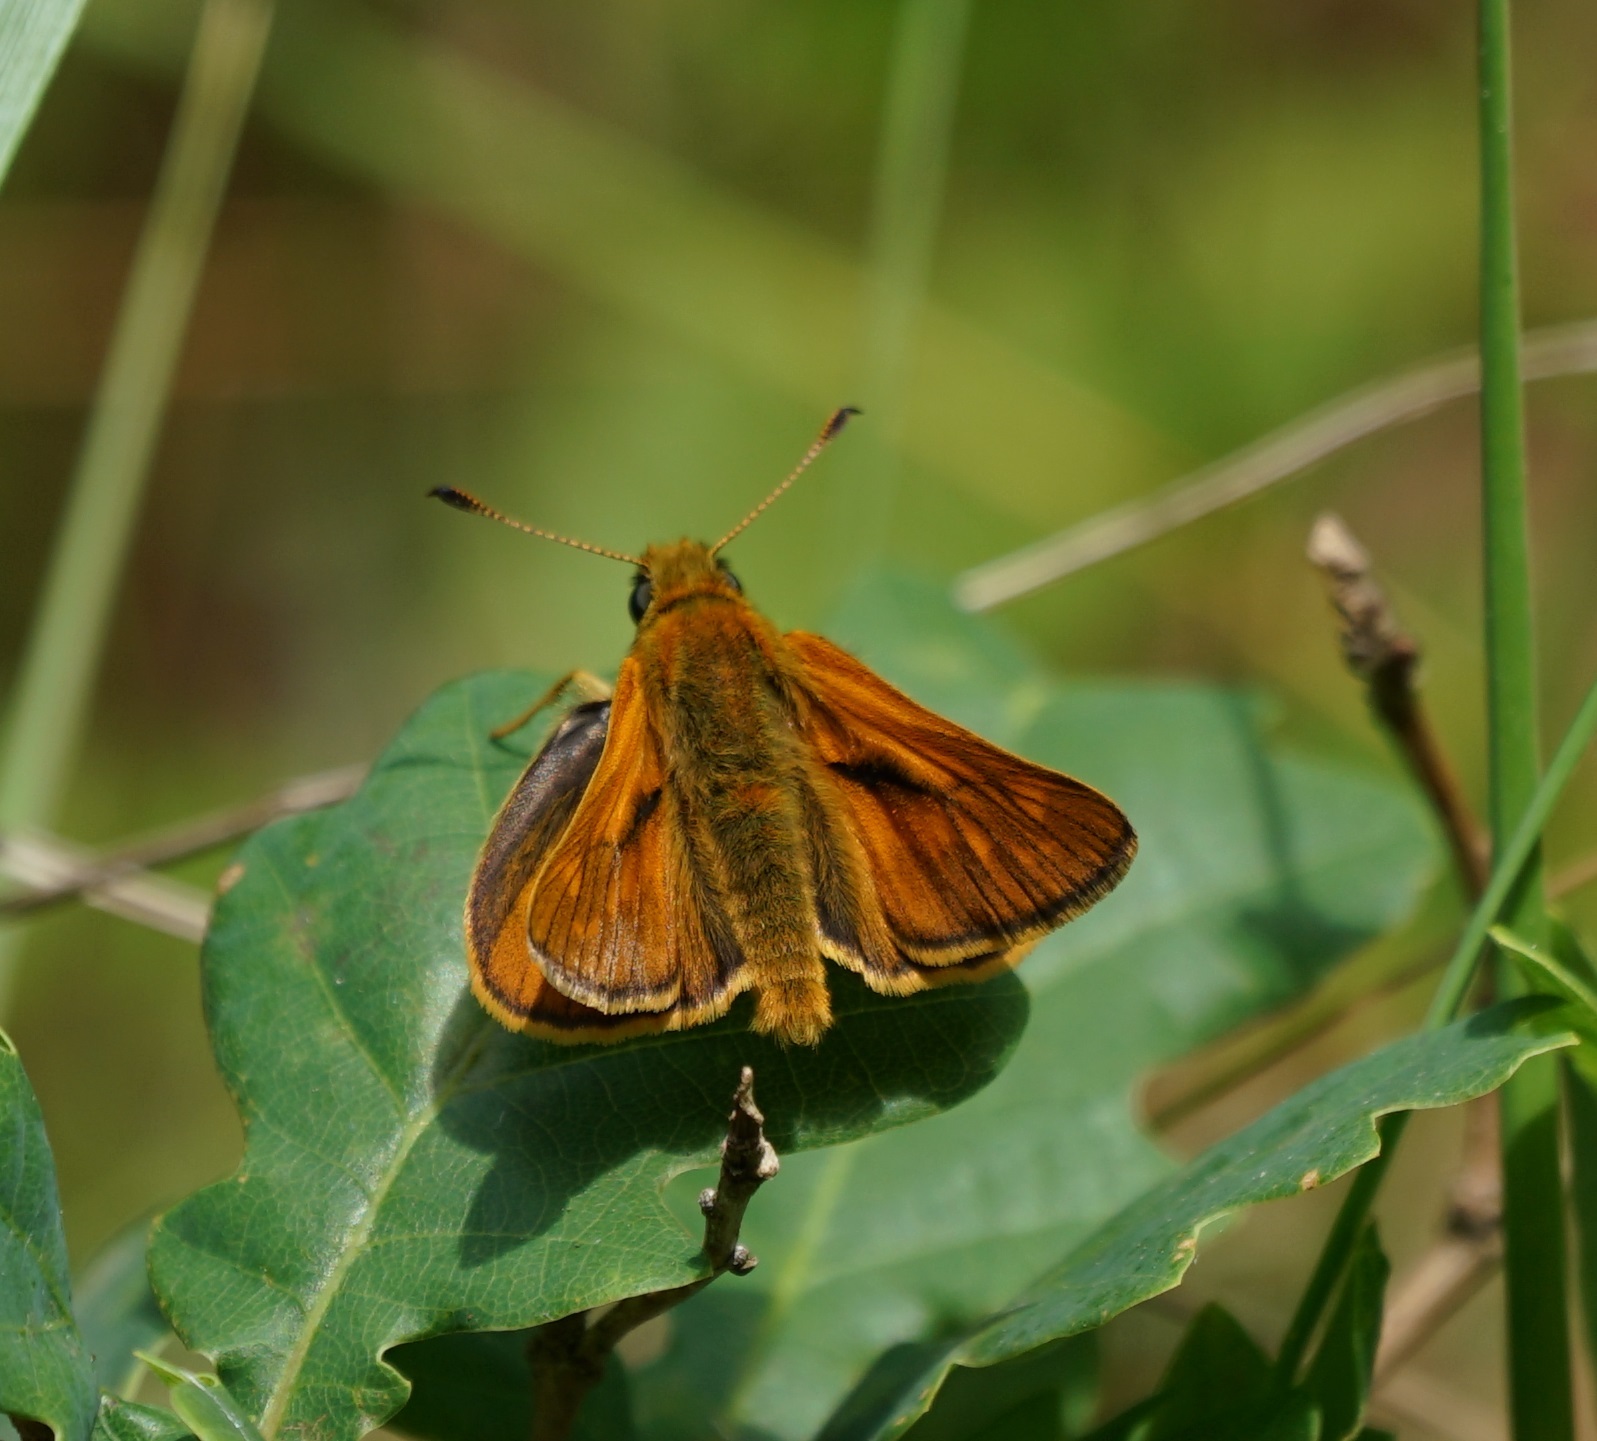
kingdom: Animalia
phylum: Arthropoda
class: Insecta
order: Lepidoptera
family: Hesperiidae
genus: Ochlodes
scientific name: Ochlodes venata
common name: Large skipper
